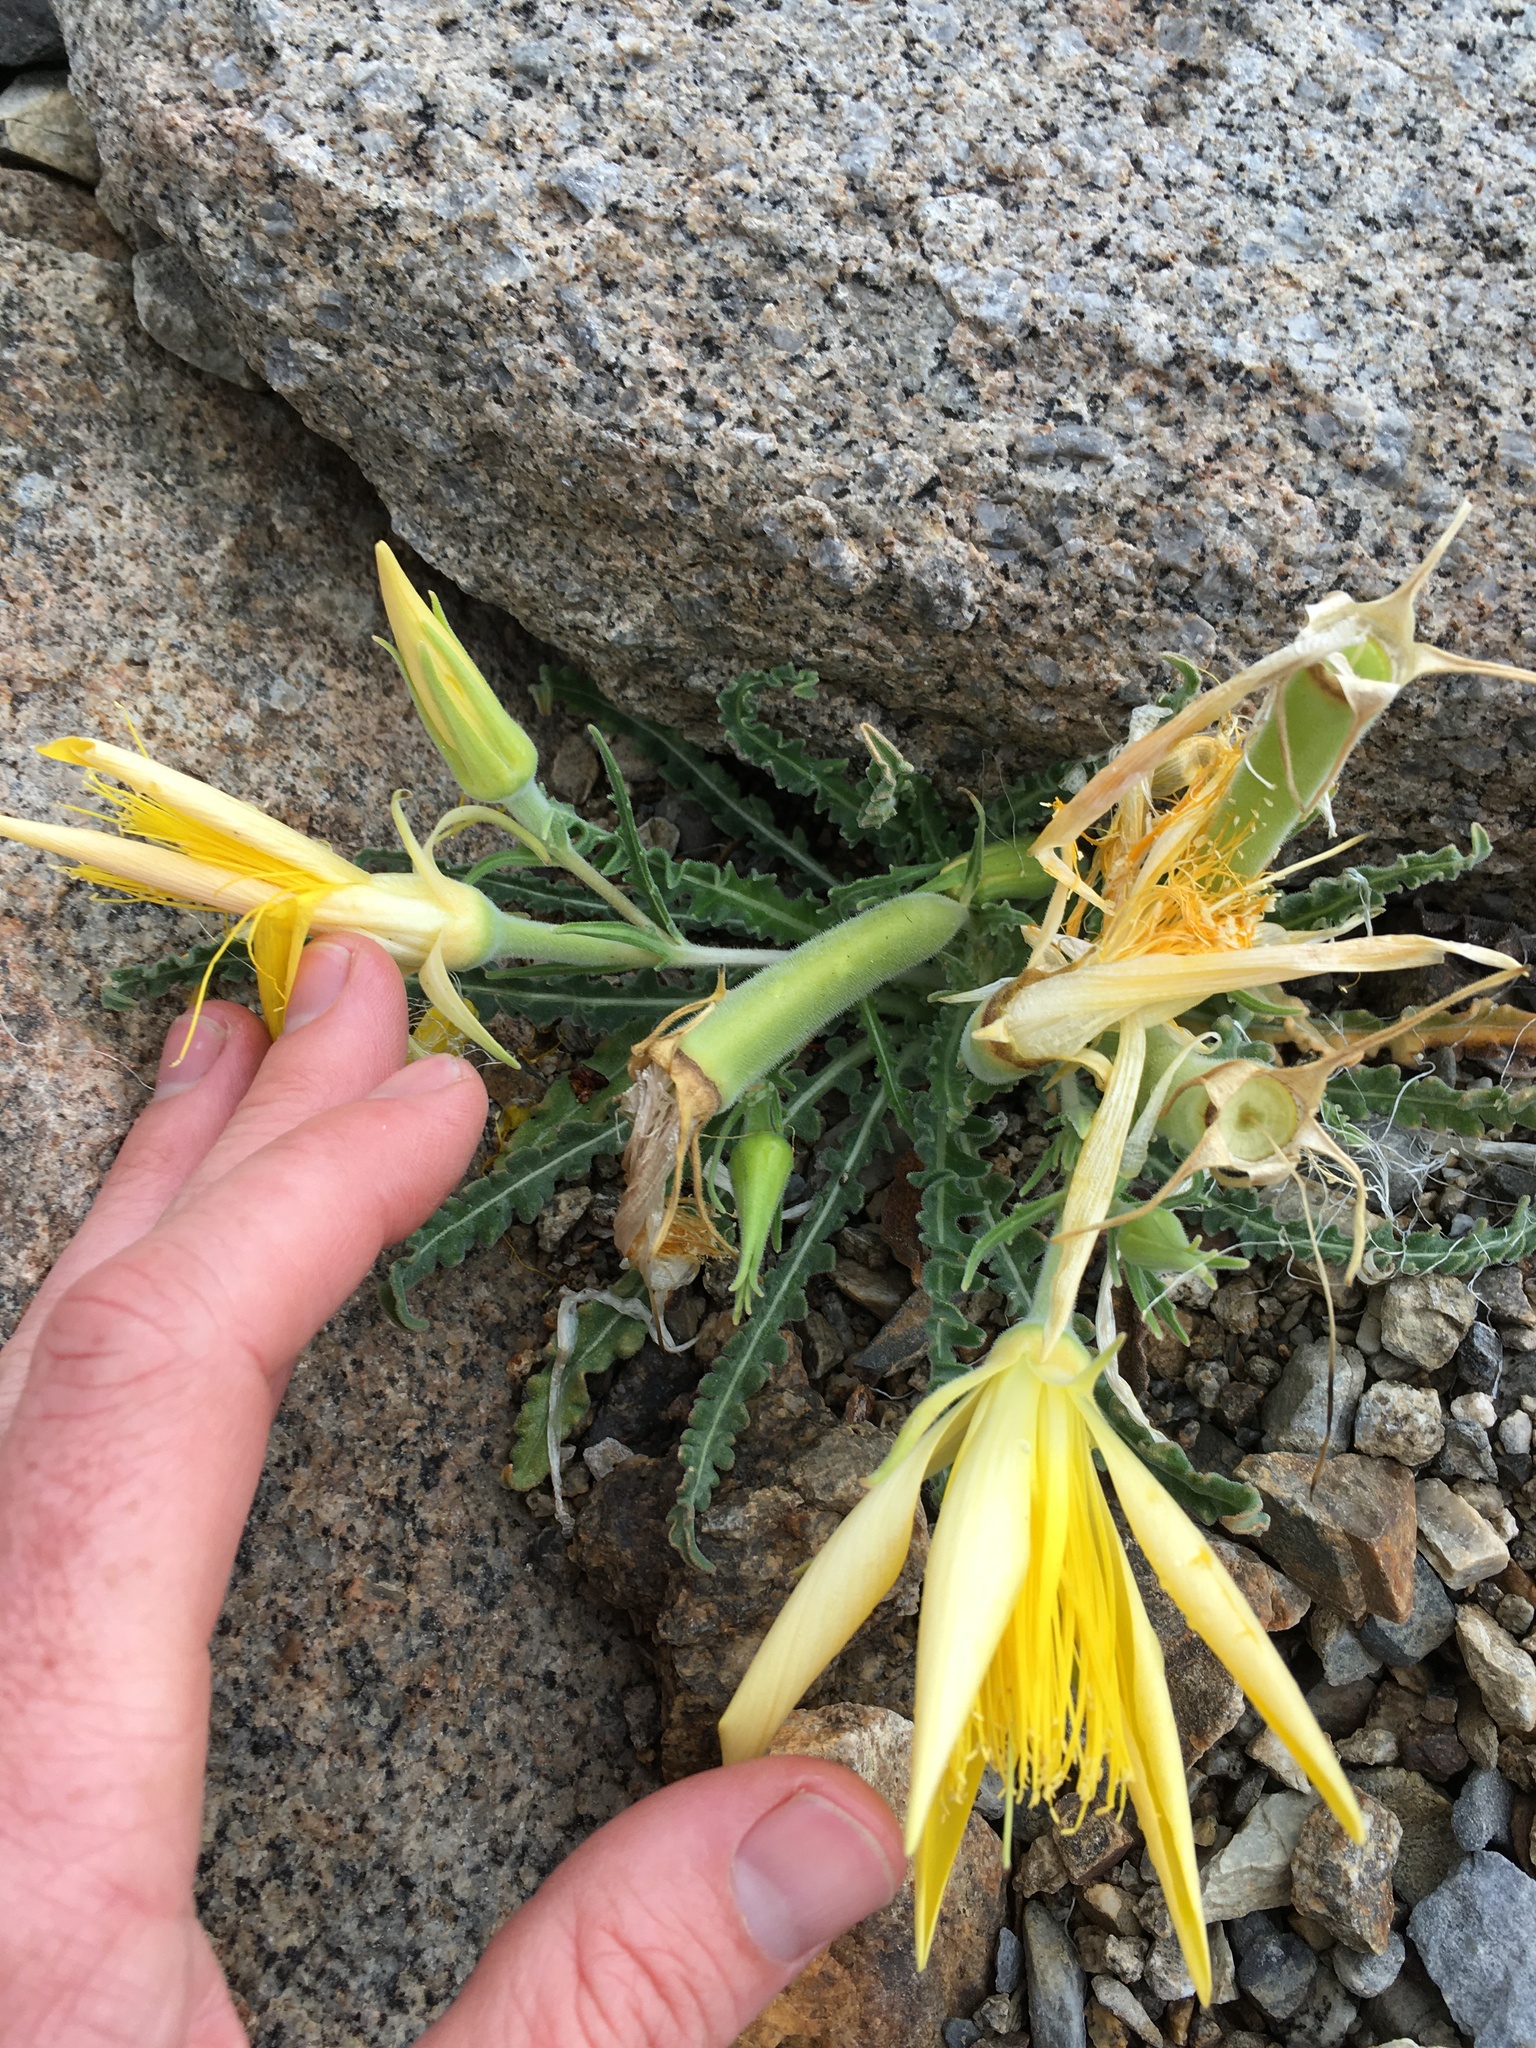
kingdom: Plantae
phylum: Tracheophyta
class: Magnoliopsida
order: Cornales
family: Loasaceae
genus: Mentzelia
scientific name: Mentzelia laevicaulis
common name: Smooth-stem blazingstar
